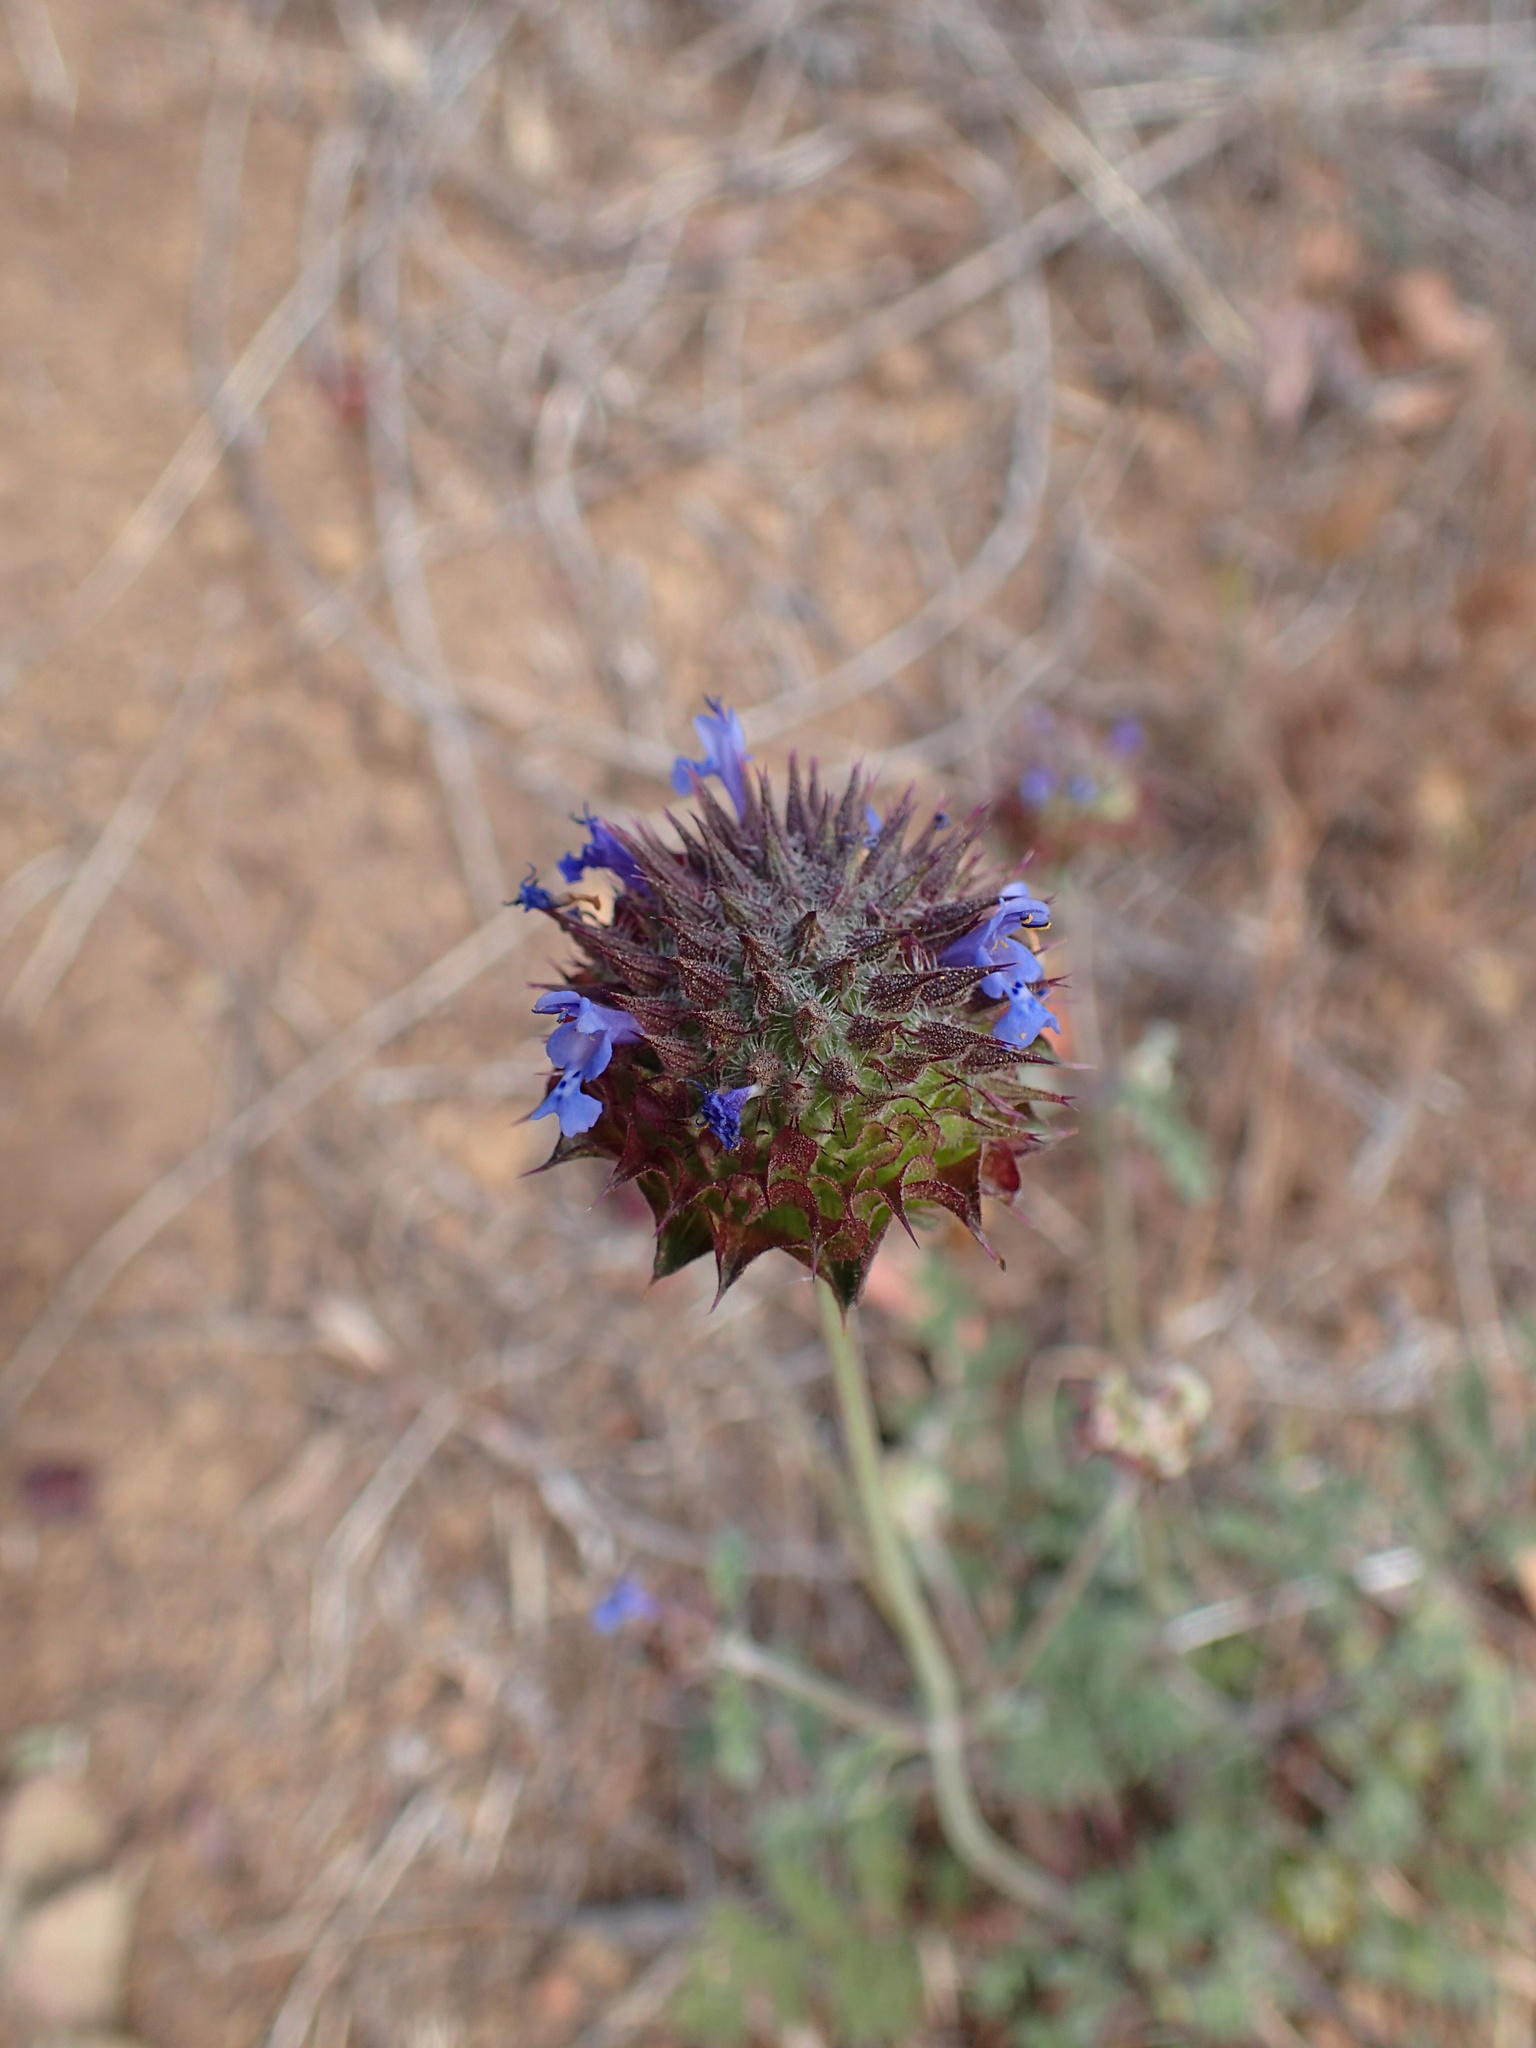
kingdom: Plantae
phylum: Tracheophyta
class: Magnoliopsida
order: Lamiales
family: Lamiaceae
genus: Salvia
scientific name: Salvia columbariae
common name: Chia
